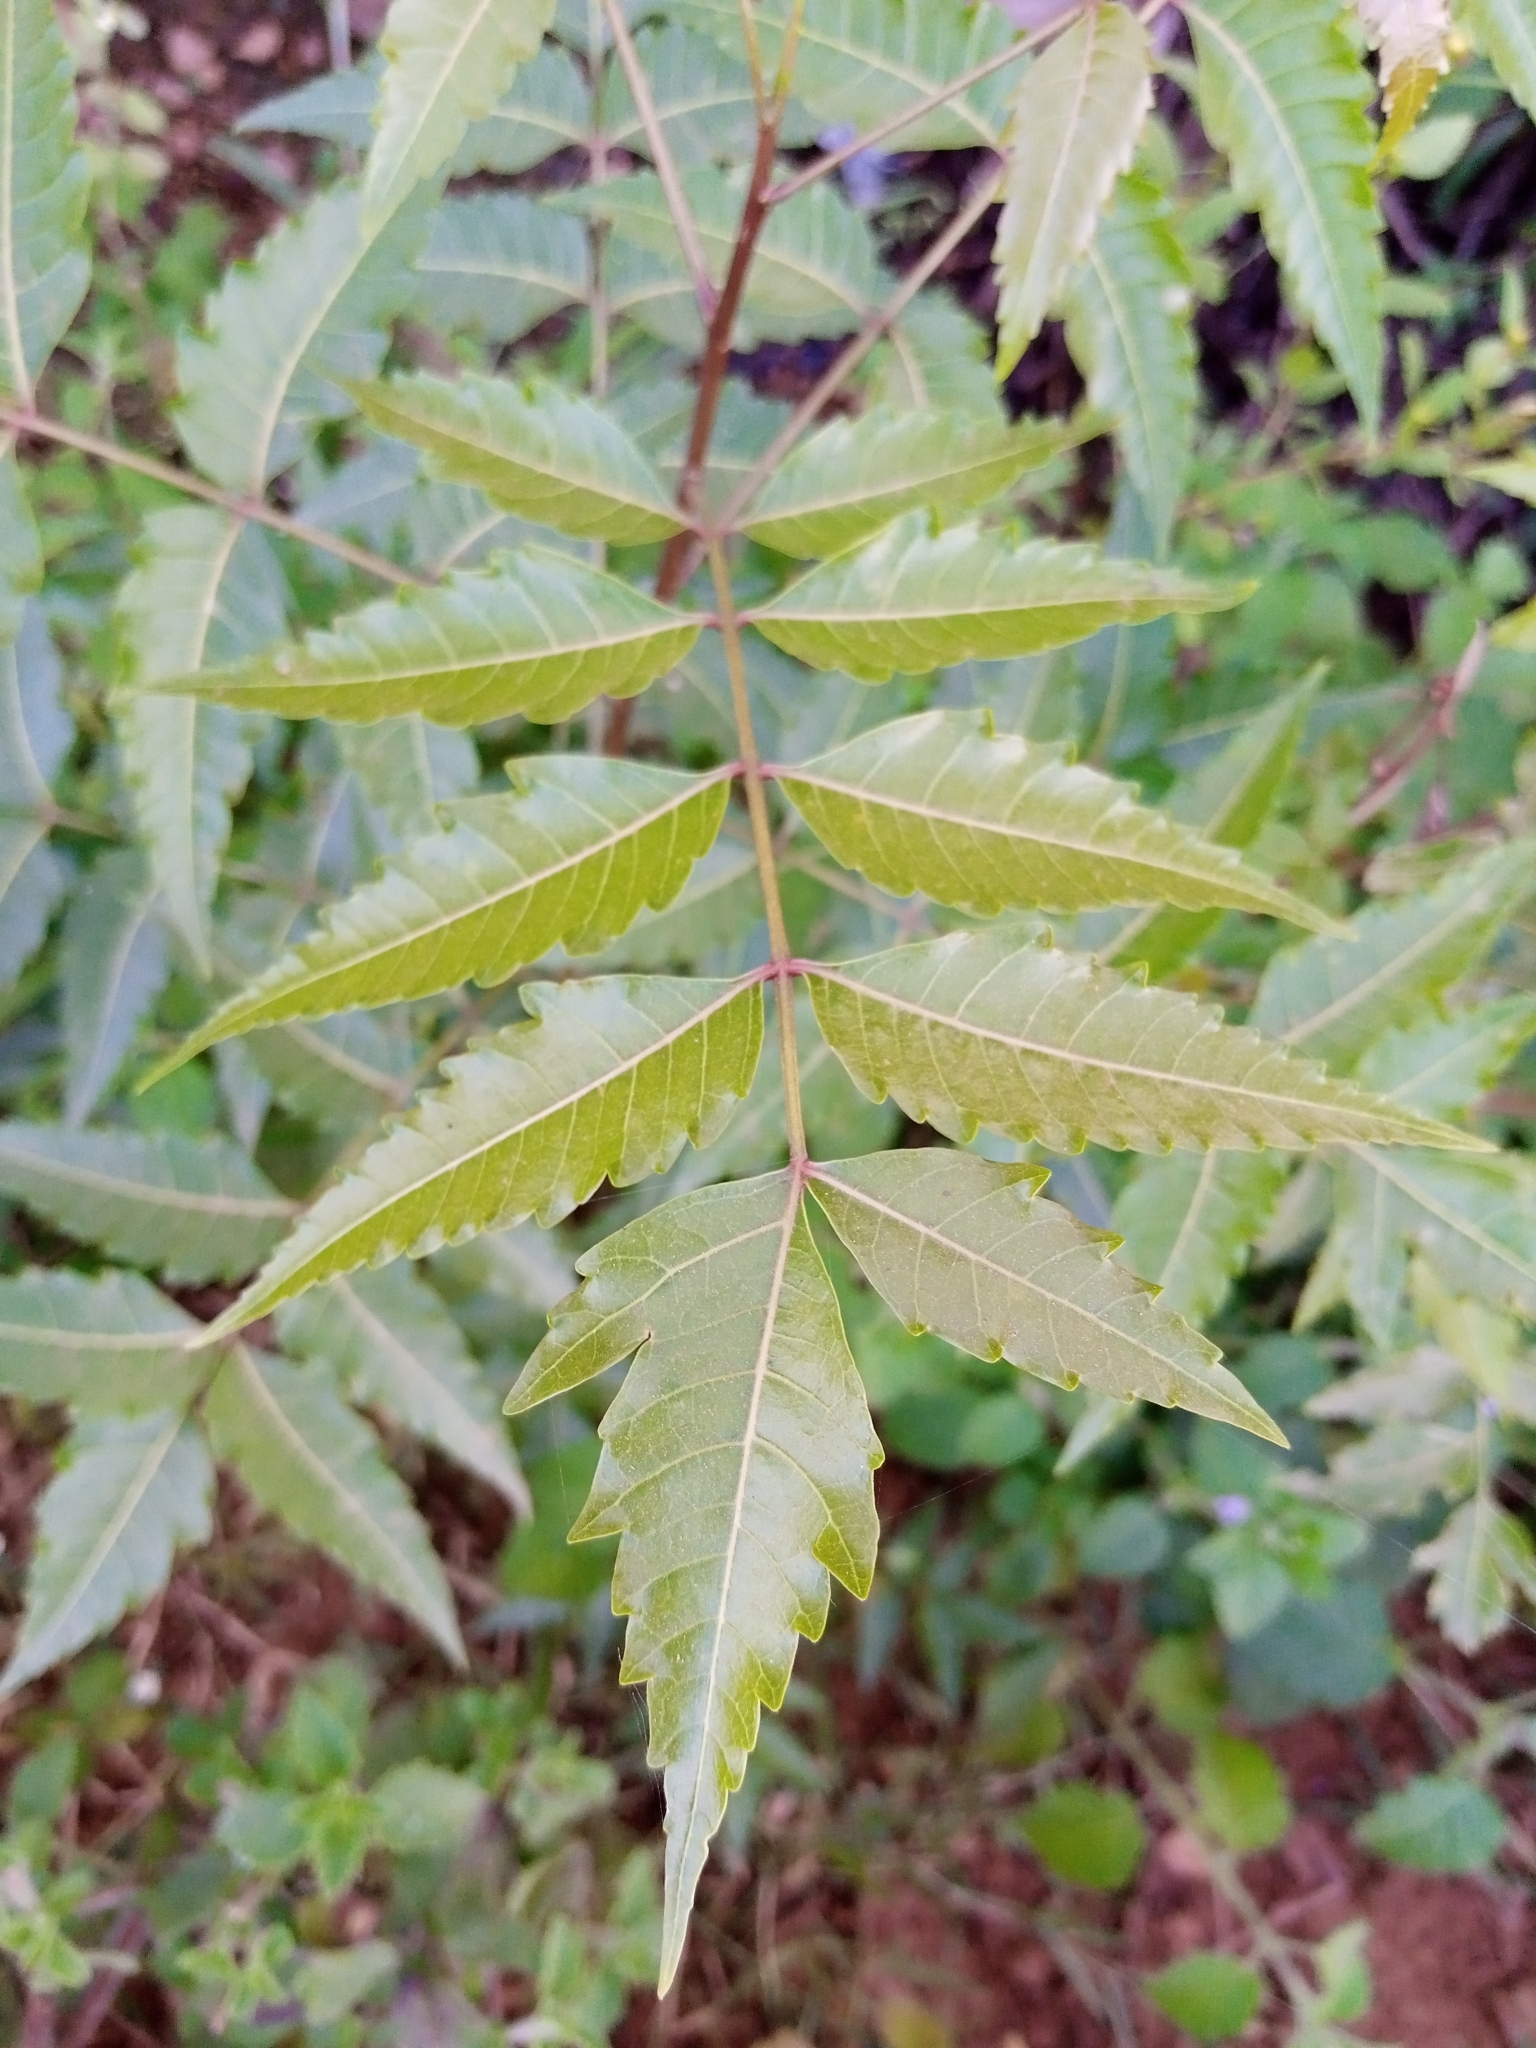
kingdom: Plantae
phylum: Tracheophyta
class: Magnoliopsida
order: Sapindales
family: Meliaceae
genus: Azadirachta
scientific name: Azadirachta indica
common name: Neem
